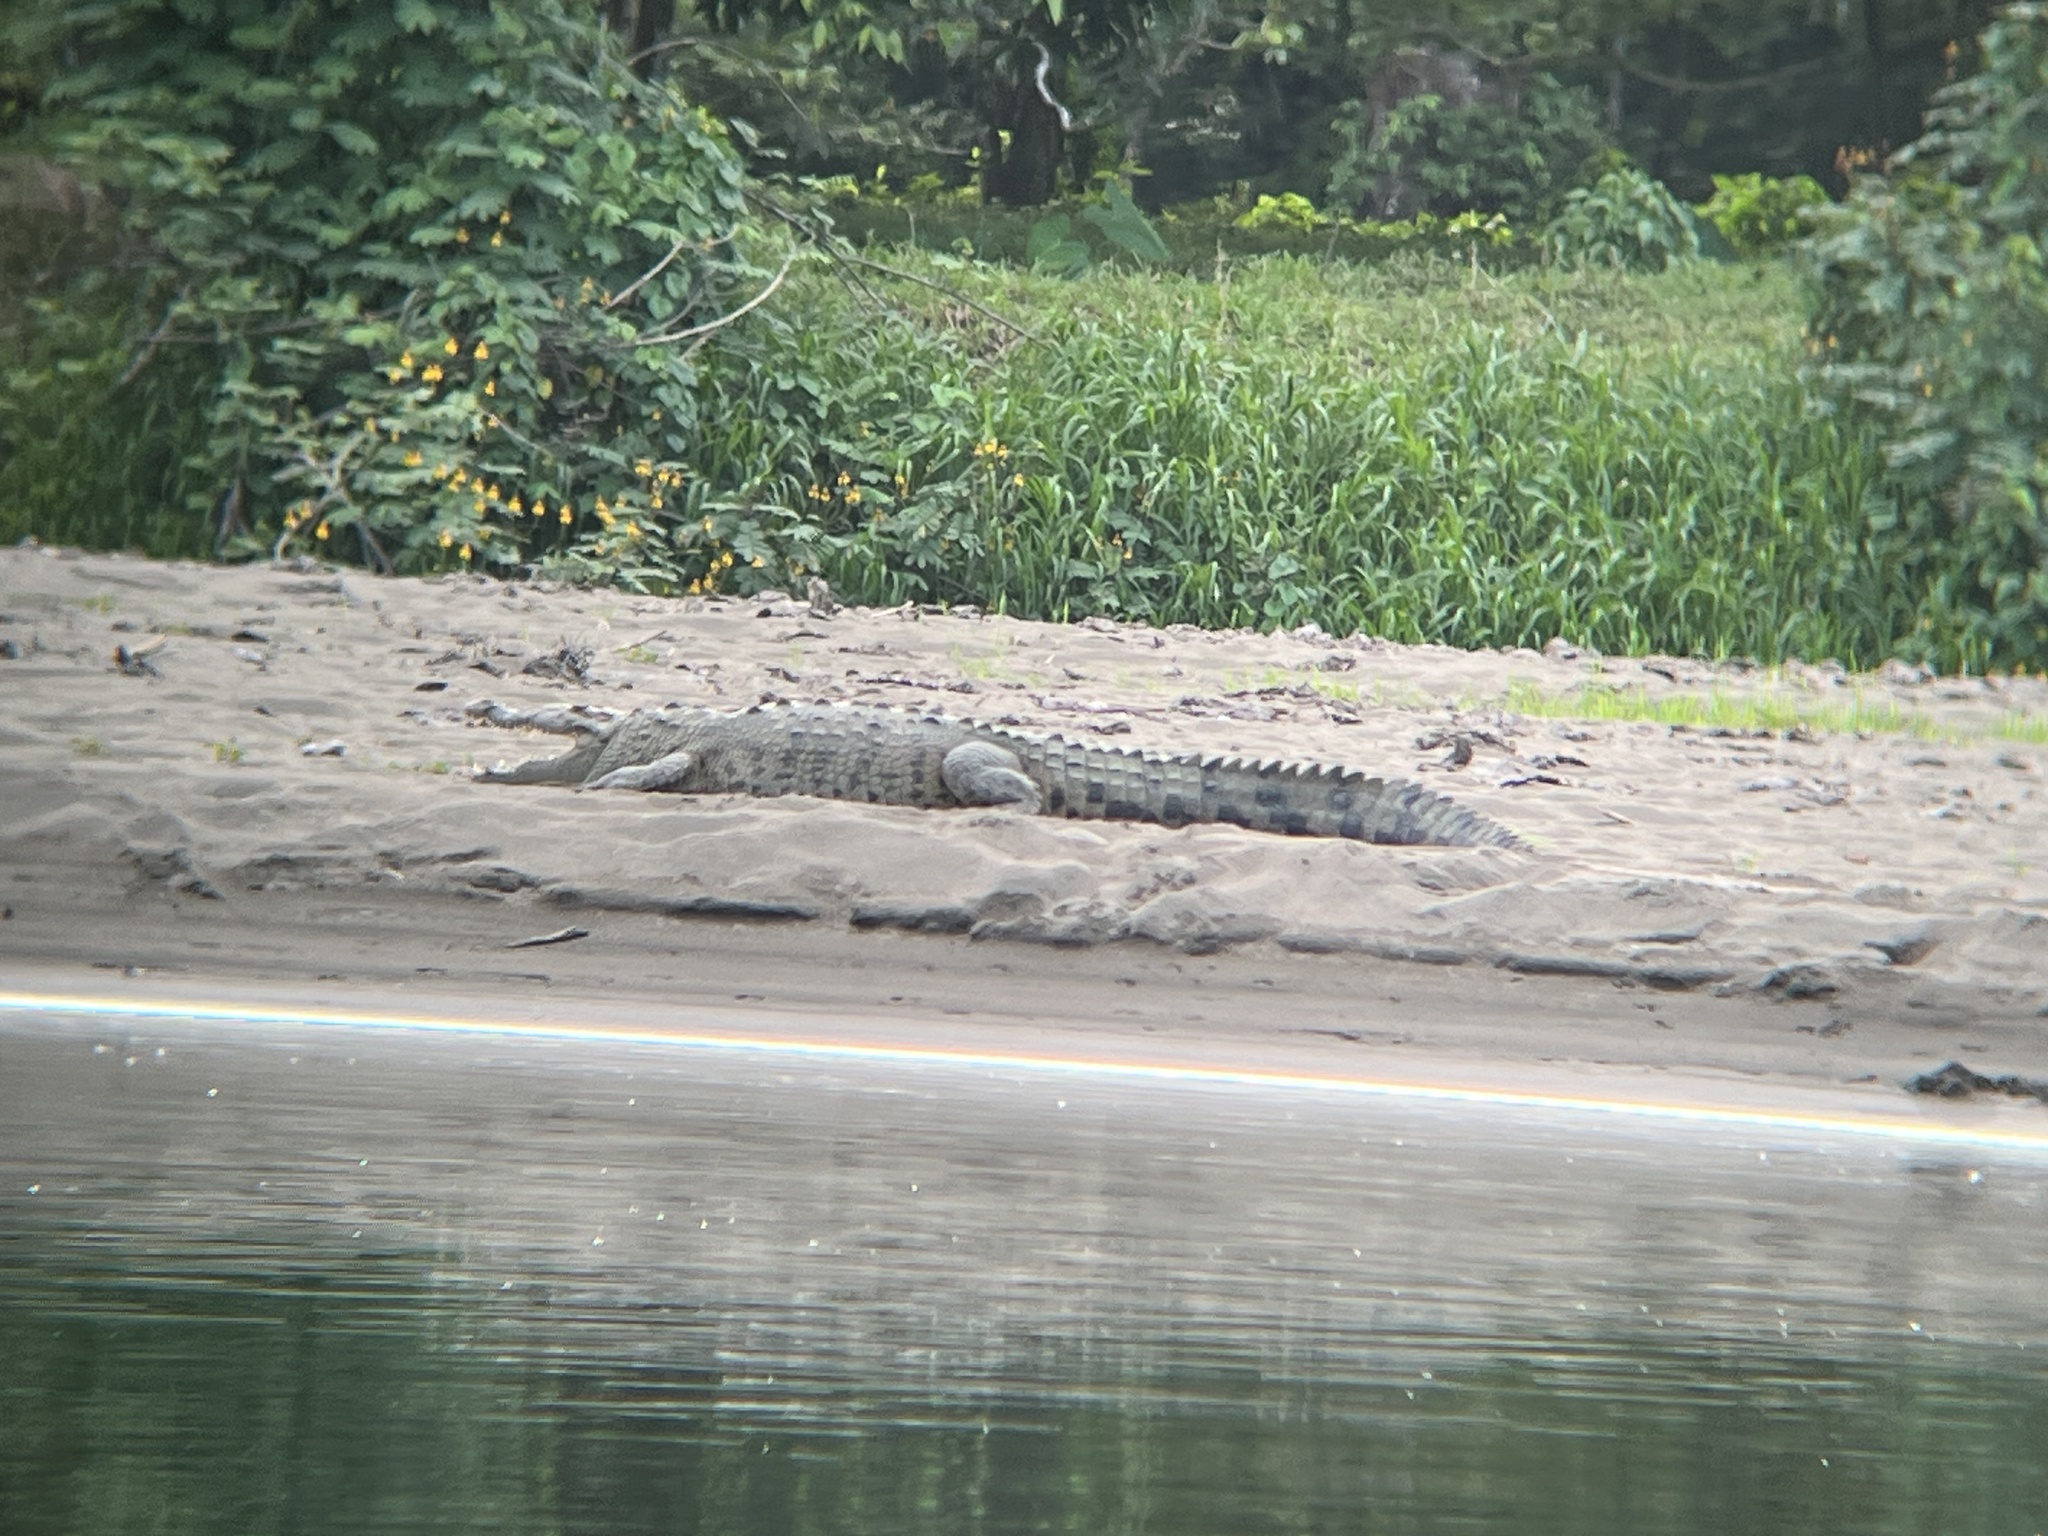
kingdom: Animalia
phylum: Chordata
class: Crocodylia
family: Crocodylidae
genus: Crocodylus
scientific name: Crocodylus acutus
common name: American crocodile
